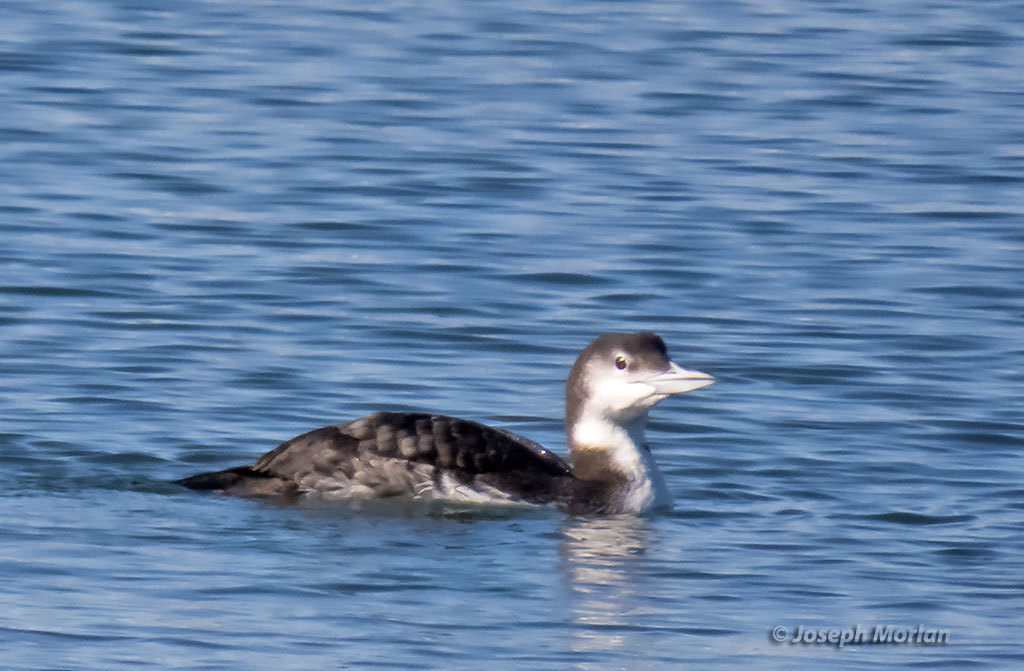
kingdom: Animalia
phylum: Chordata
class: Aves
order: Gaviiformes
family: Gaviidae
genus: Gavia
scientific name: Gavia immer
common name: Common loon
